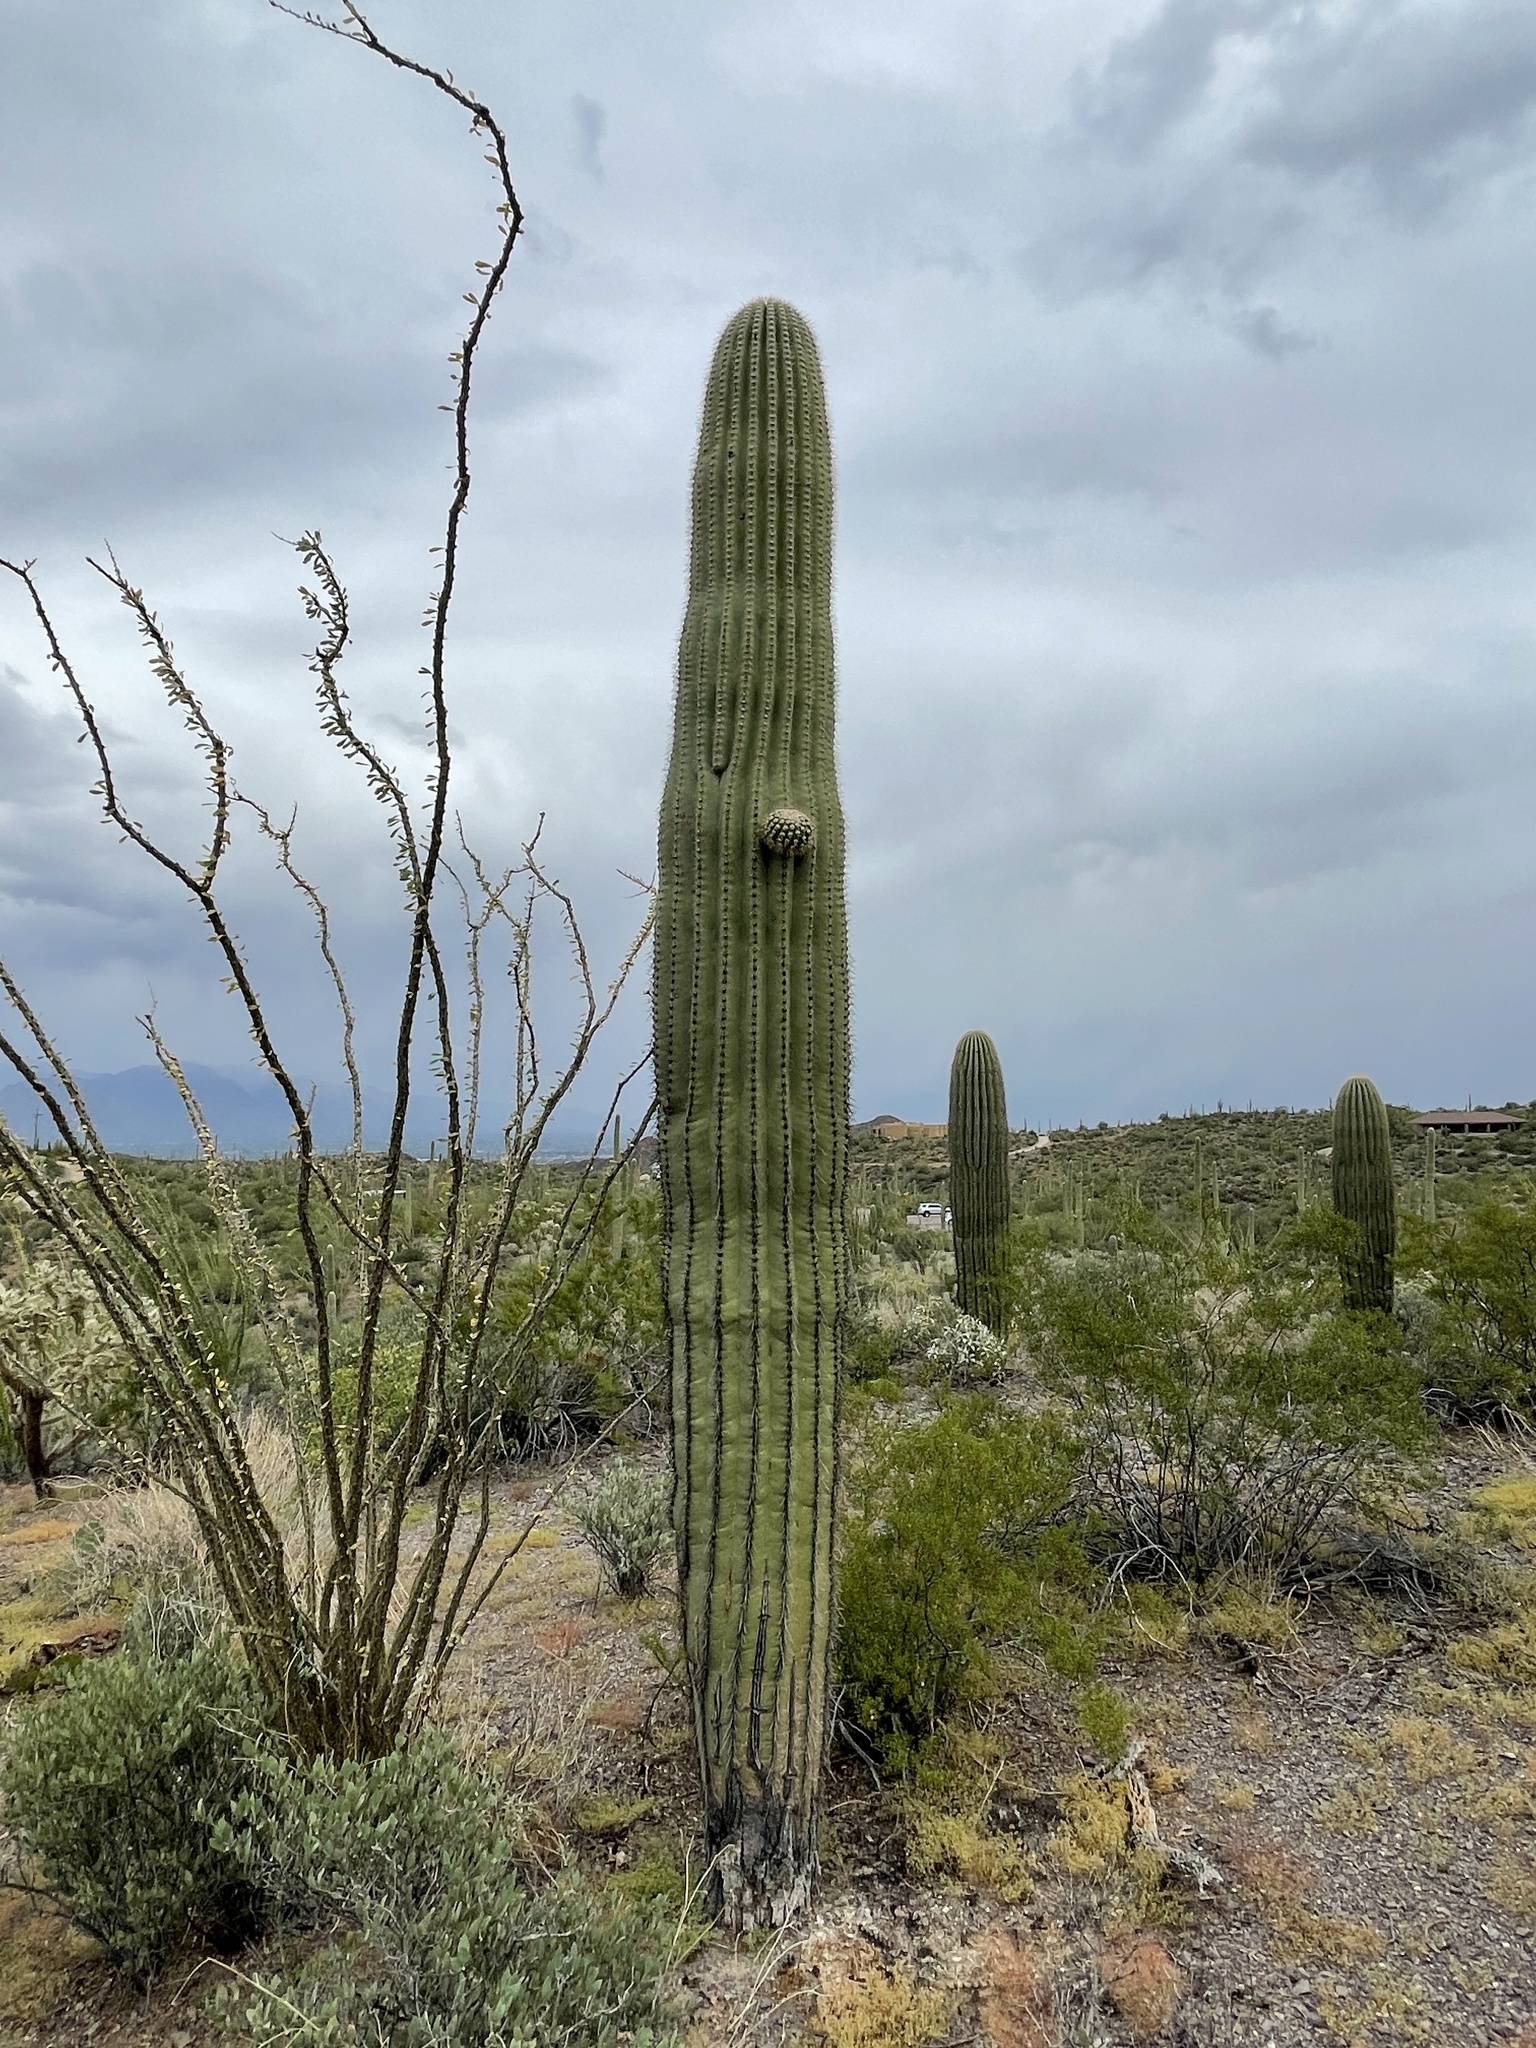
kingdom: Plantae
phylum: Tracheophyta
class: Magnoliopsida
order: Caryophyllales
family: Cactaceae
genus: Carnegiea
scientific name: Carnegiea gigantea
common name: Saguaro
